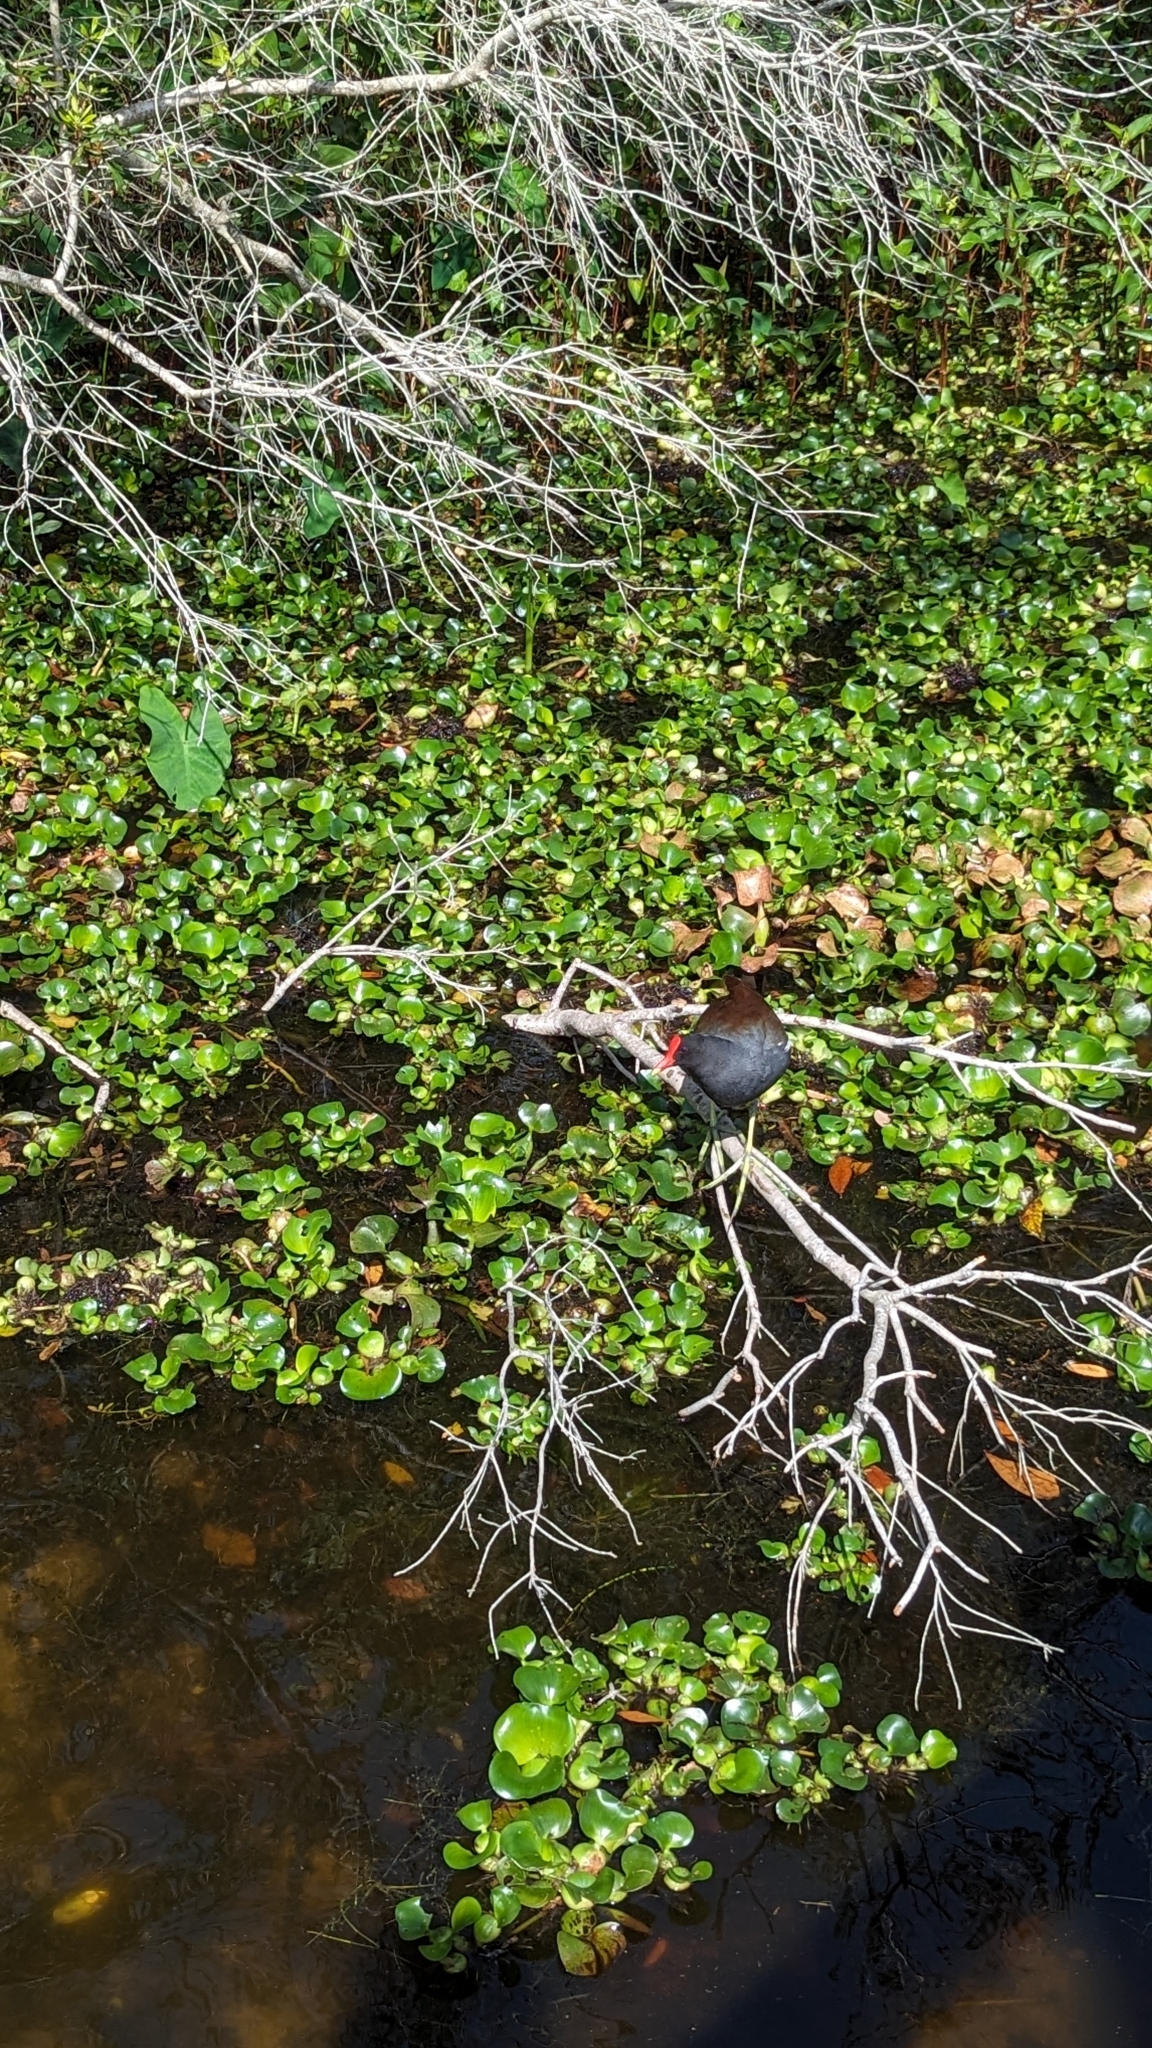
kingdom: Animalia
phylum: Chordata
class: Aves
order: Gruiformes
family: Rallidae
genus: Gallinula
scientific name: Gallinula chloropus
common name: Common moorhen
